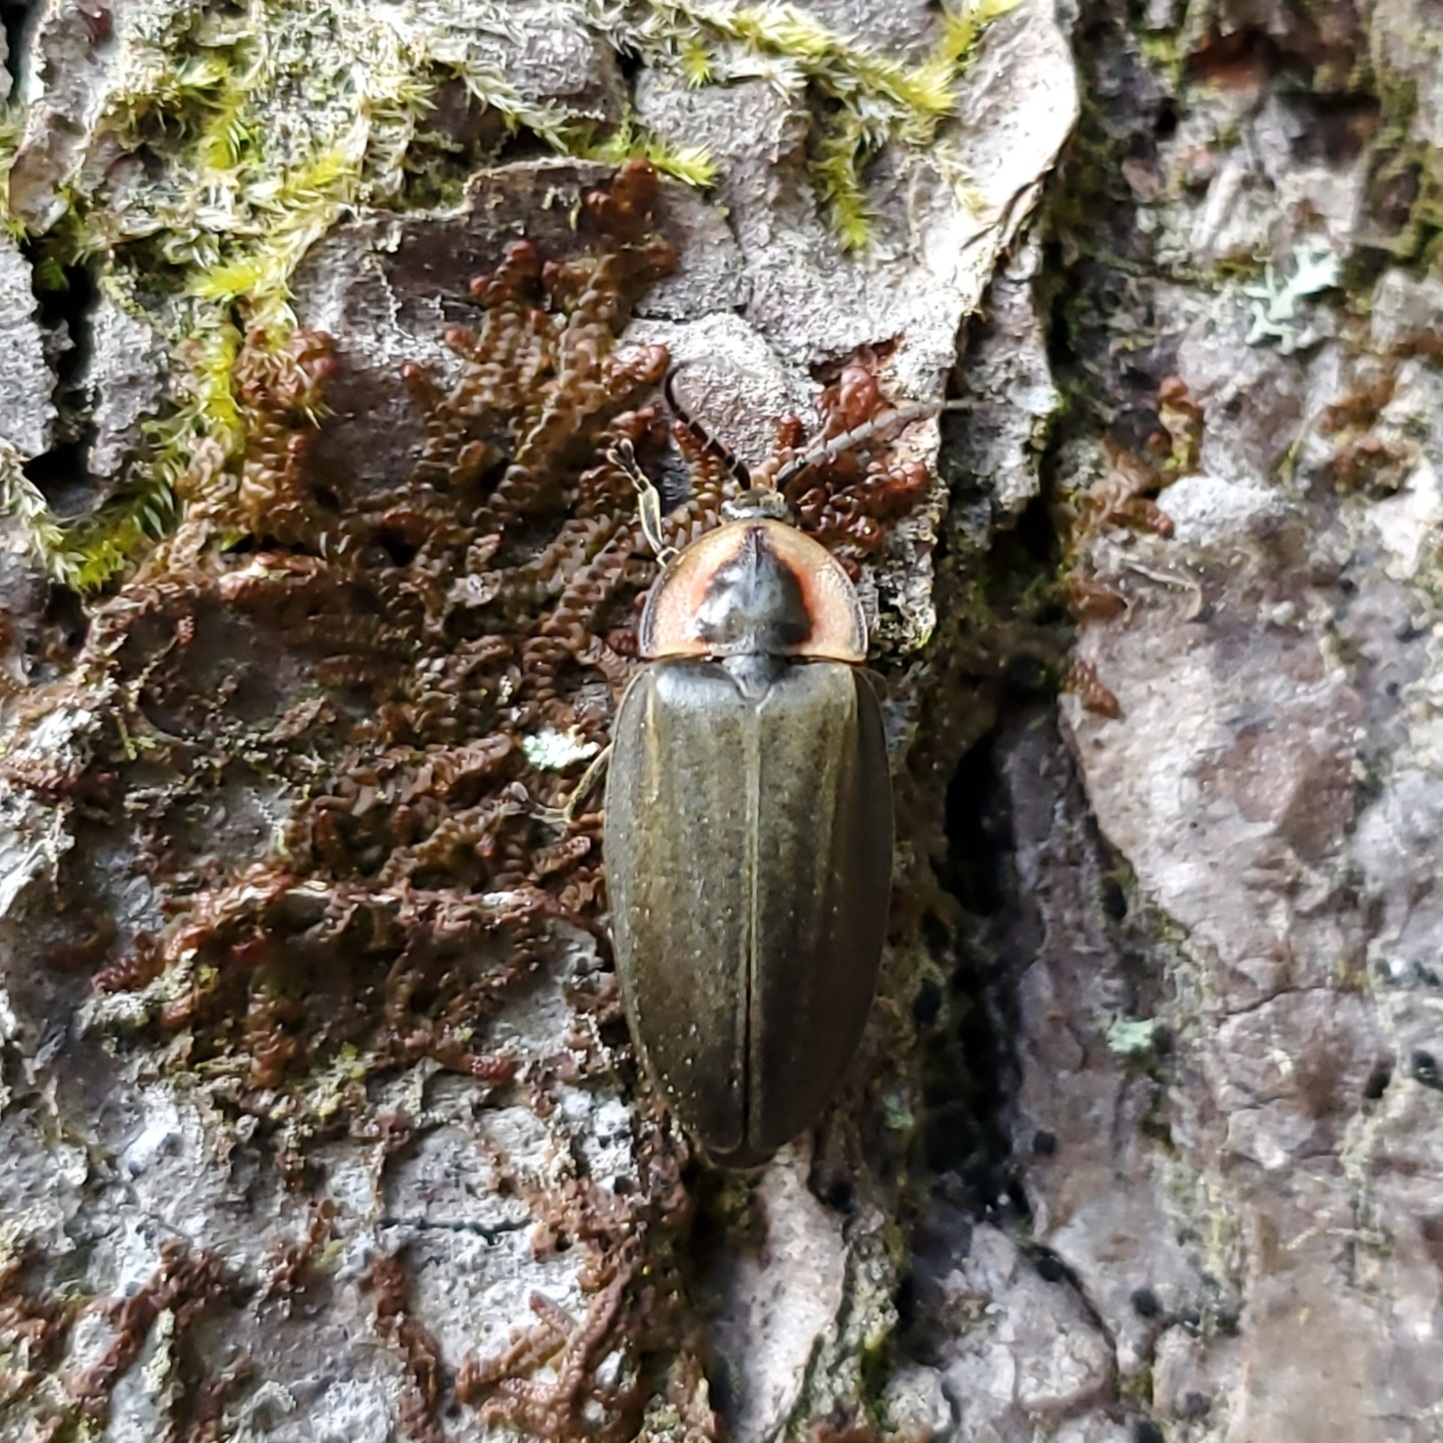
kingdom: Animalia
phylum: Arthropoda
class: Insecta
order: Coleoptera
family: Lampyridae
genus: Photinus
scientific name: Photinus corrusca
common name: Winter firefly
